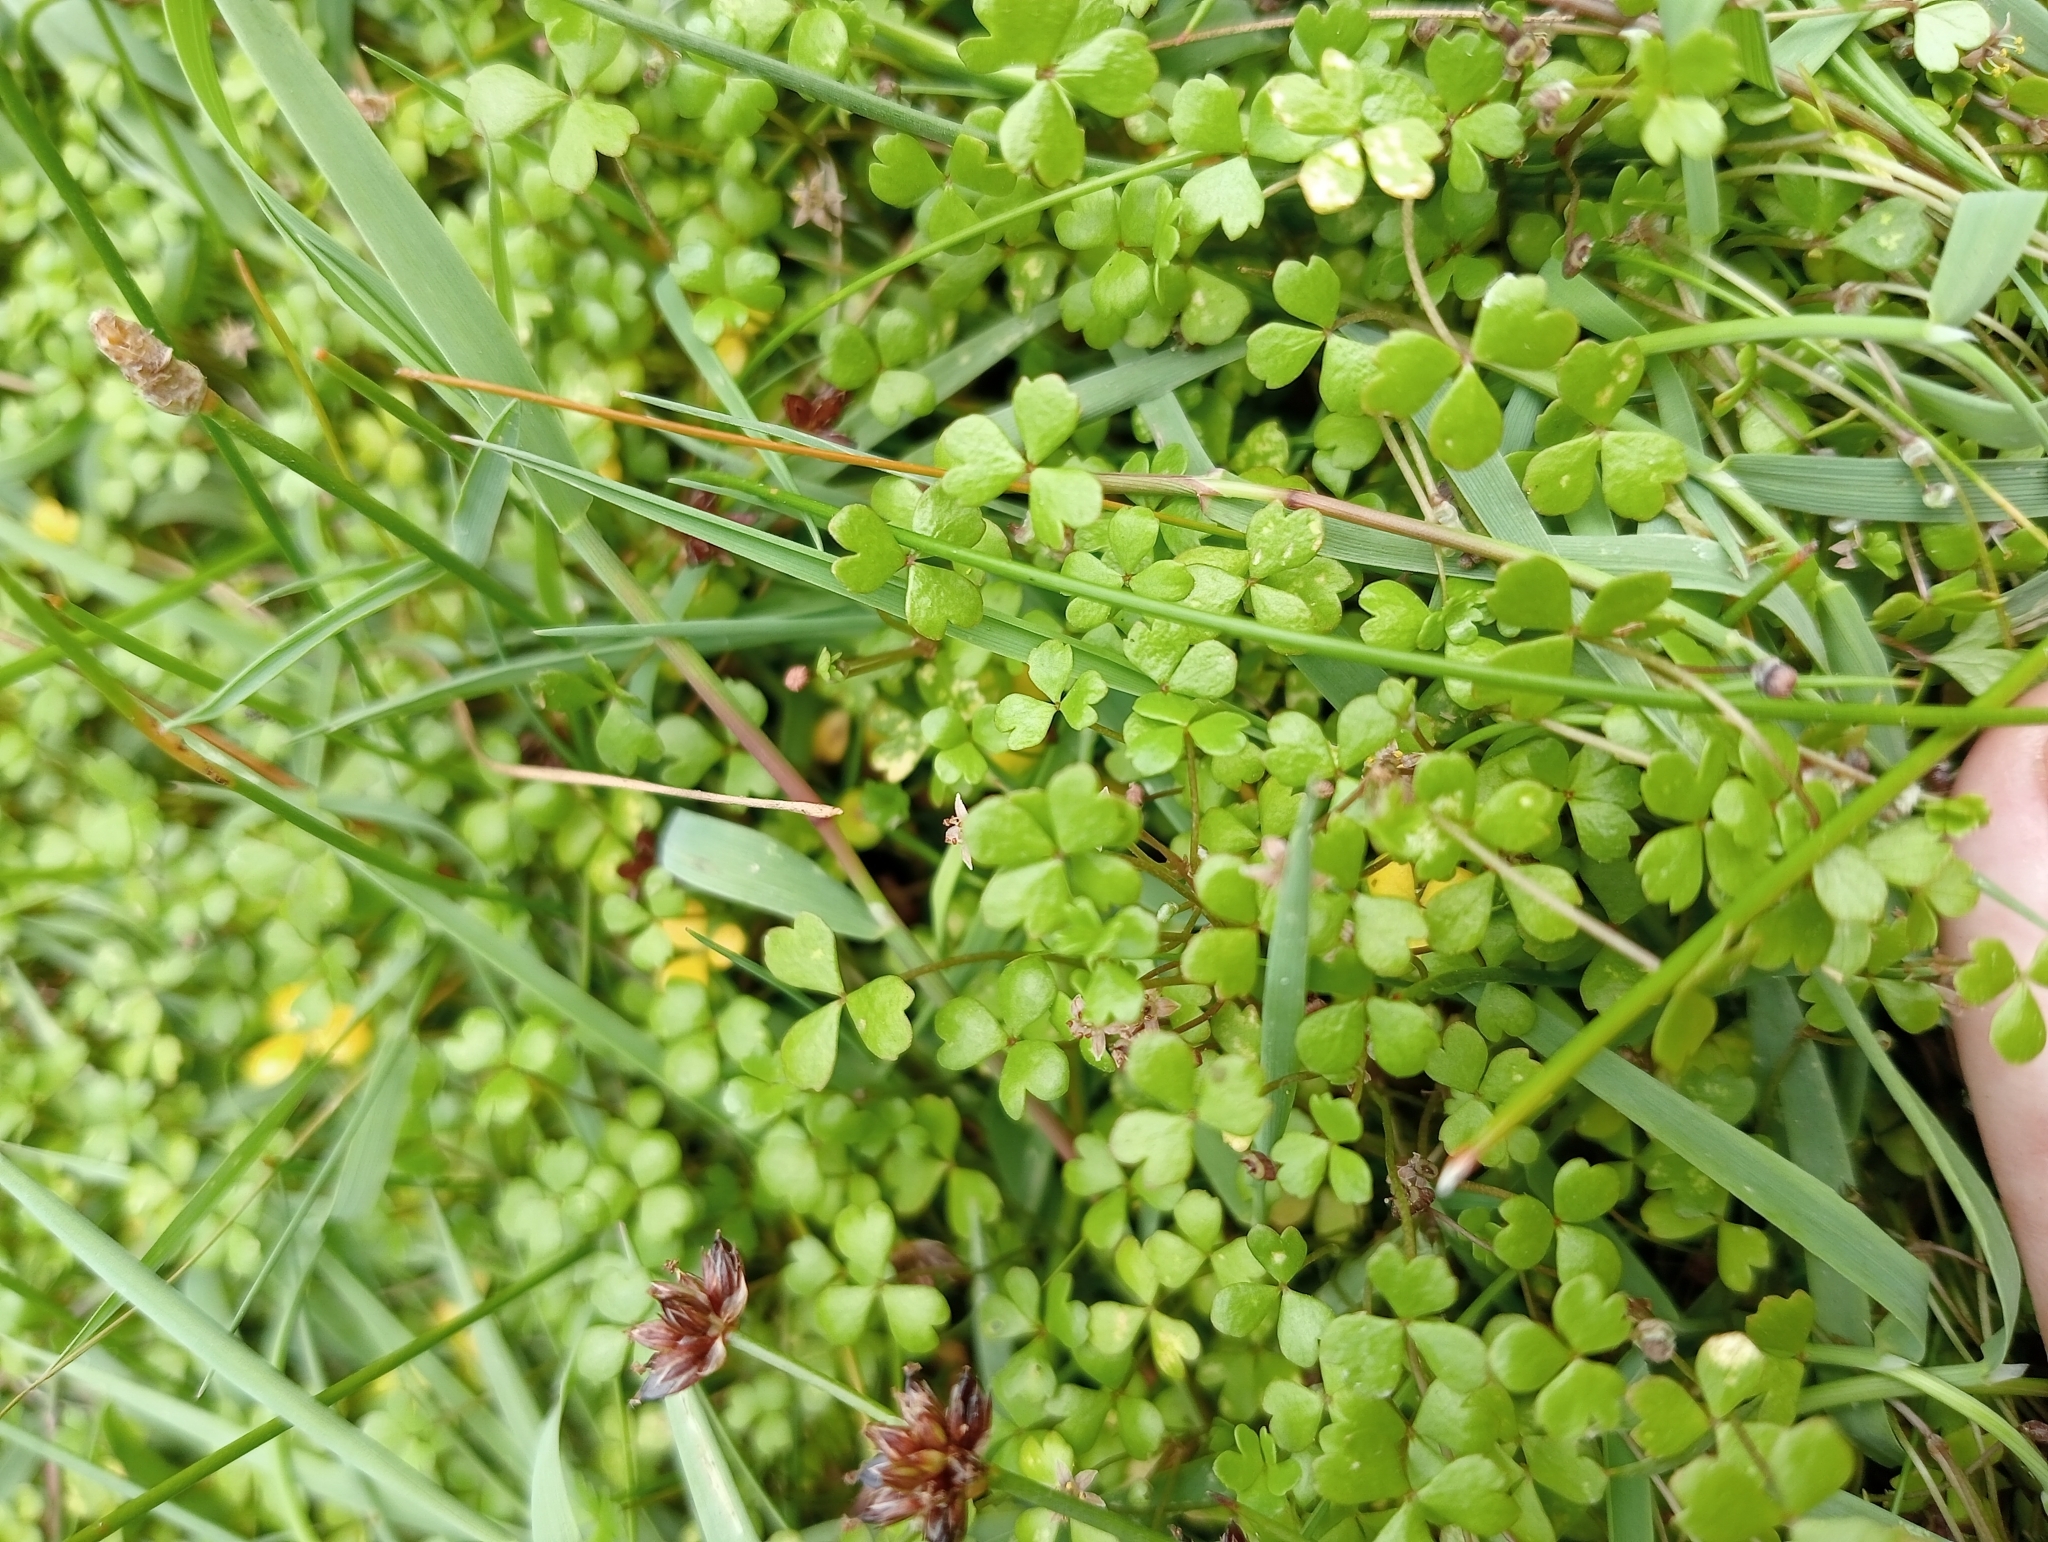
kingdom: Plantae
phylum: Tracheophyta
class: Magnoliopsida
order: Apiales
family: Araliaceae
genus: Hydrocotyle
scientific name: Hydrocotyle hydrophila
